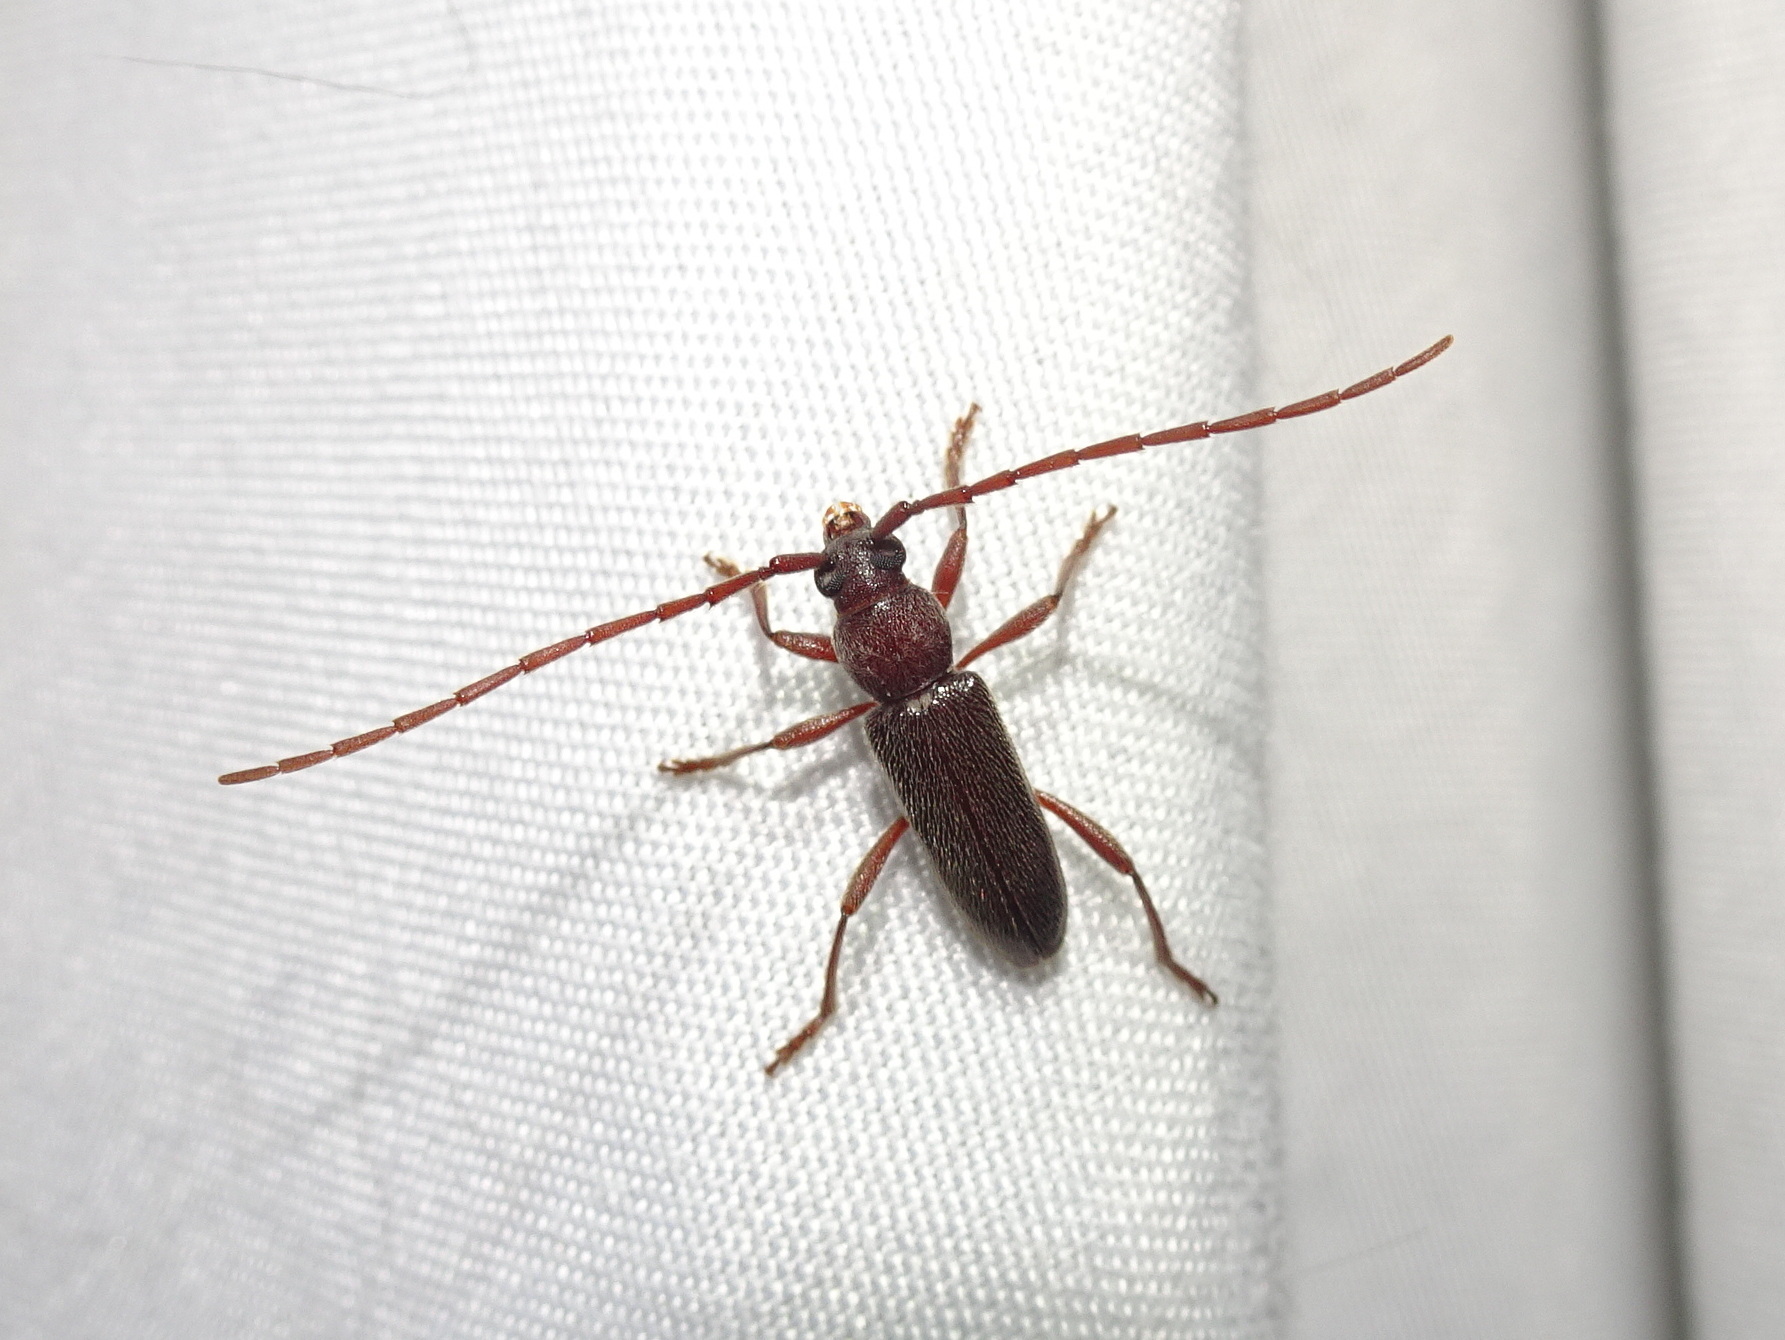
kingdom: Animalia
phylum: Arthropoda
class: Insecta
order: Coleoptera
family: Cerambycidae
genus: Anelaphus
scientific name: Anelaphus moestus
